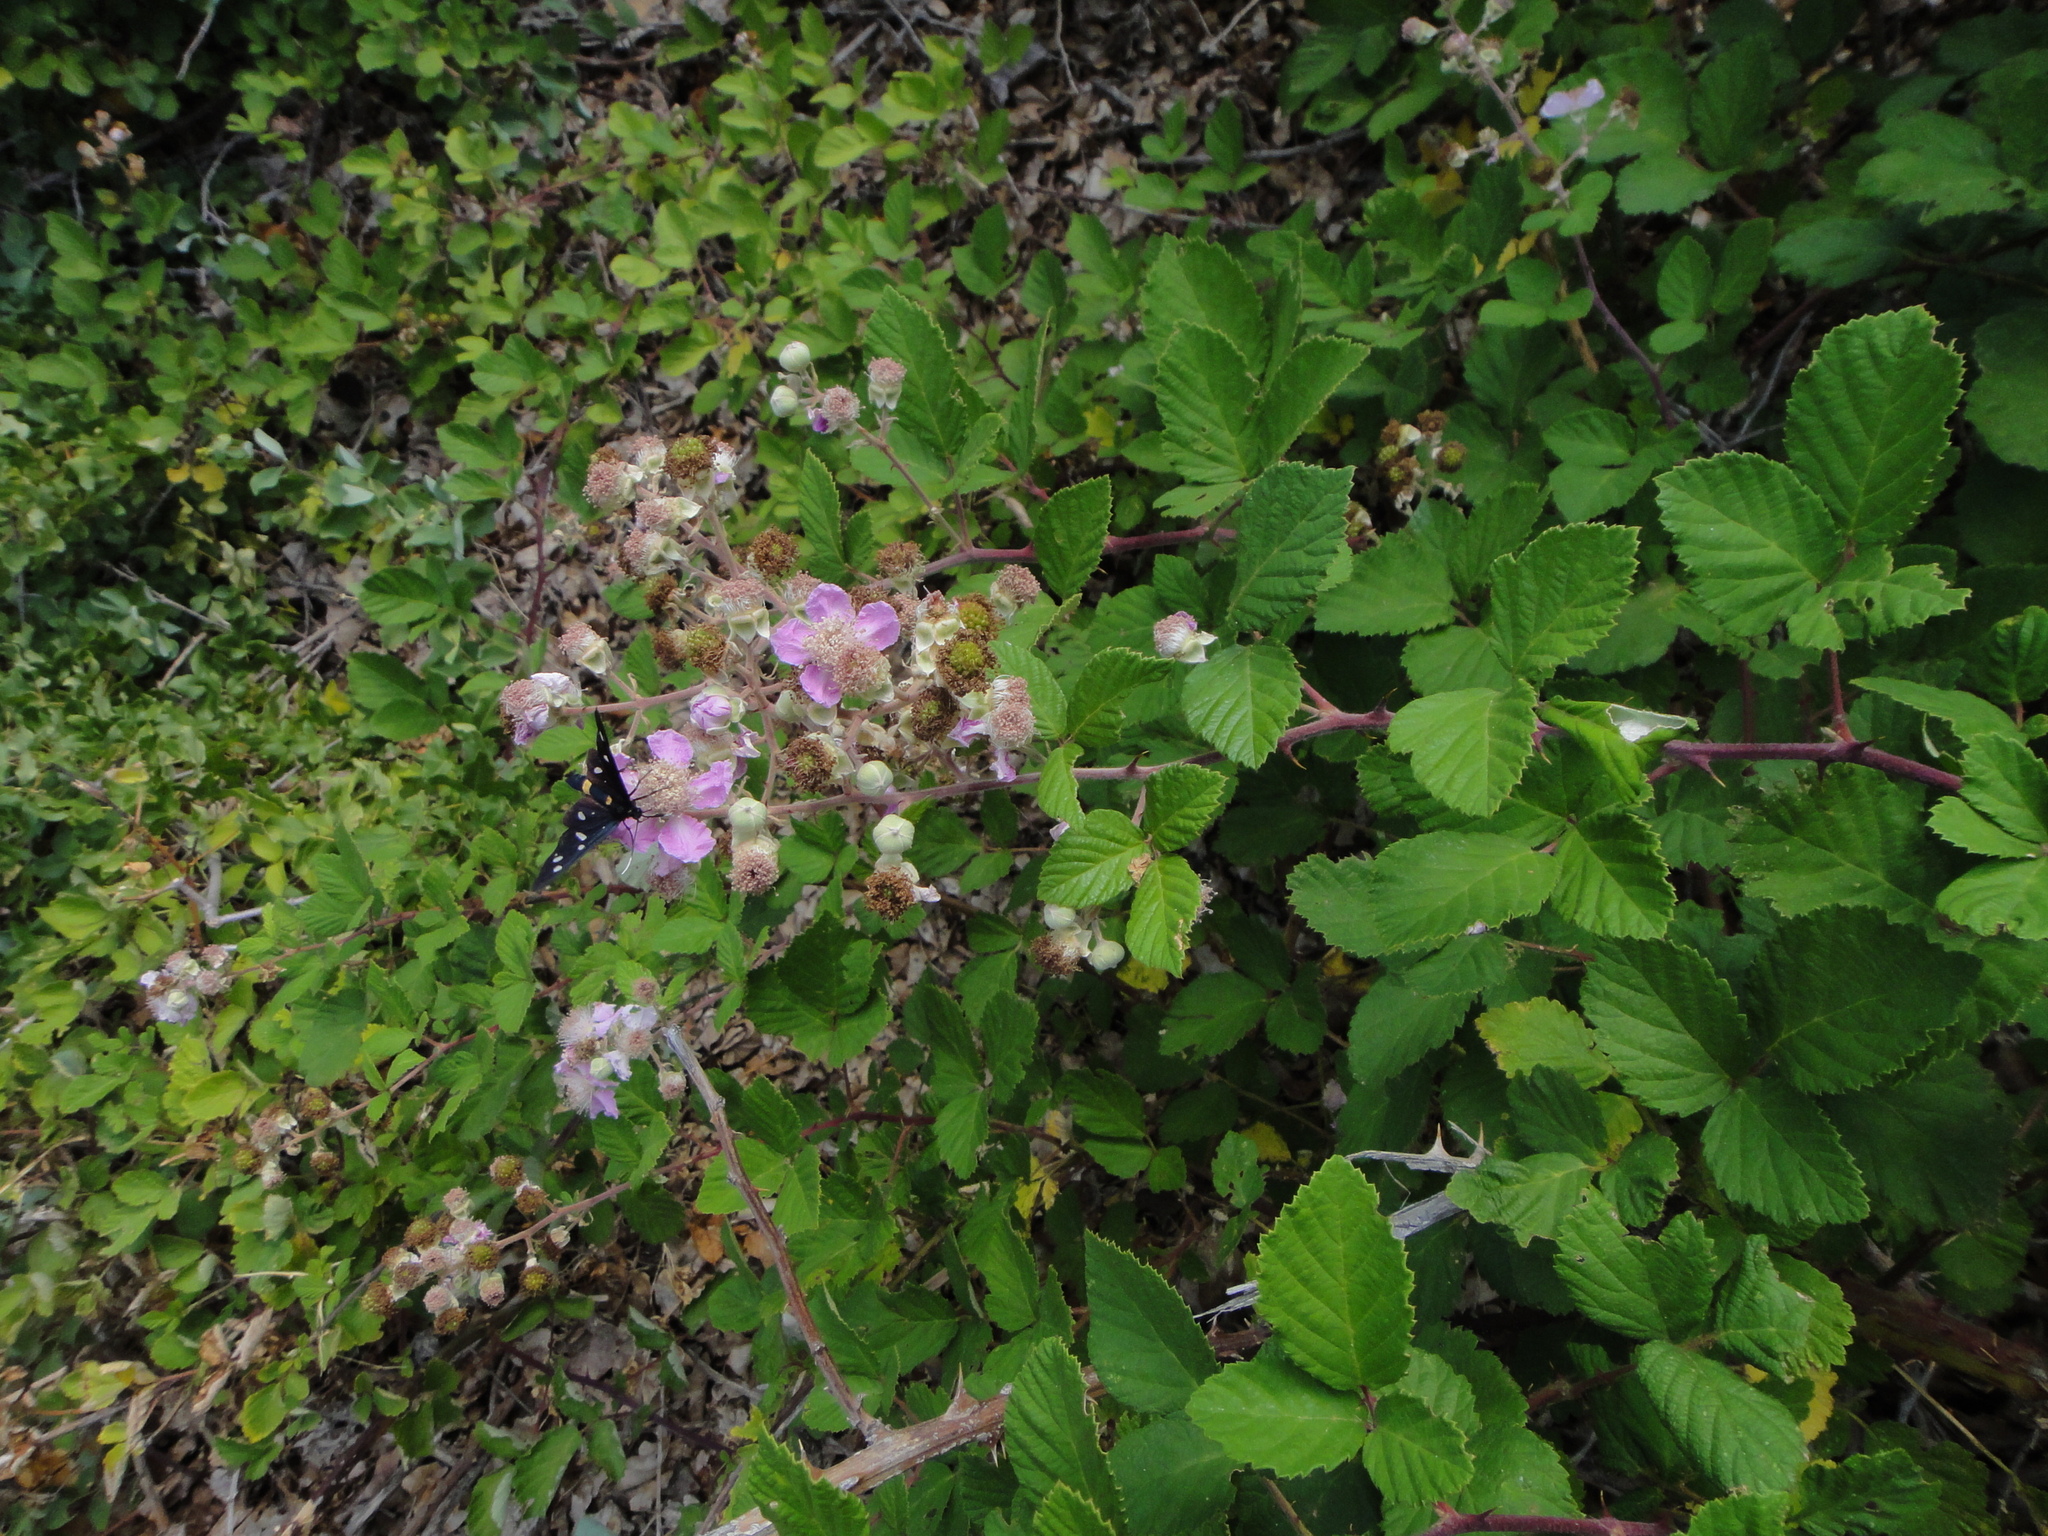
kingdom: Plantae
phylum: Tracheophyta
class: Magnoliopsida
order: Rosales
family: Rosaceae
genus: Rubus
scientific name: Rubus ulmifolius
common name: Elmleaf blackberry
